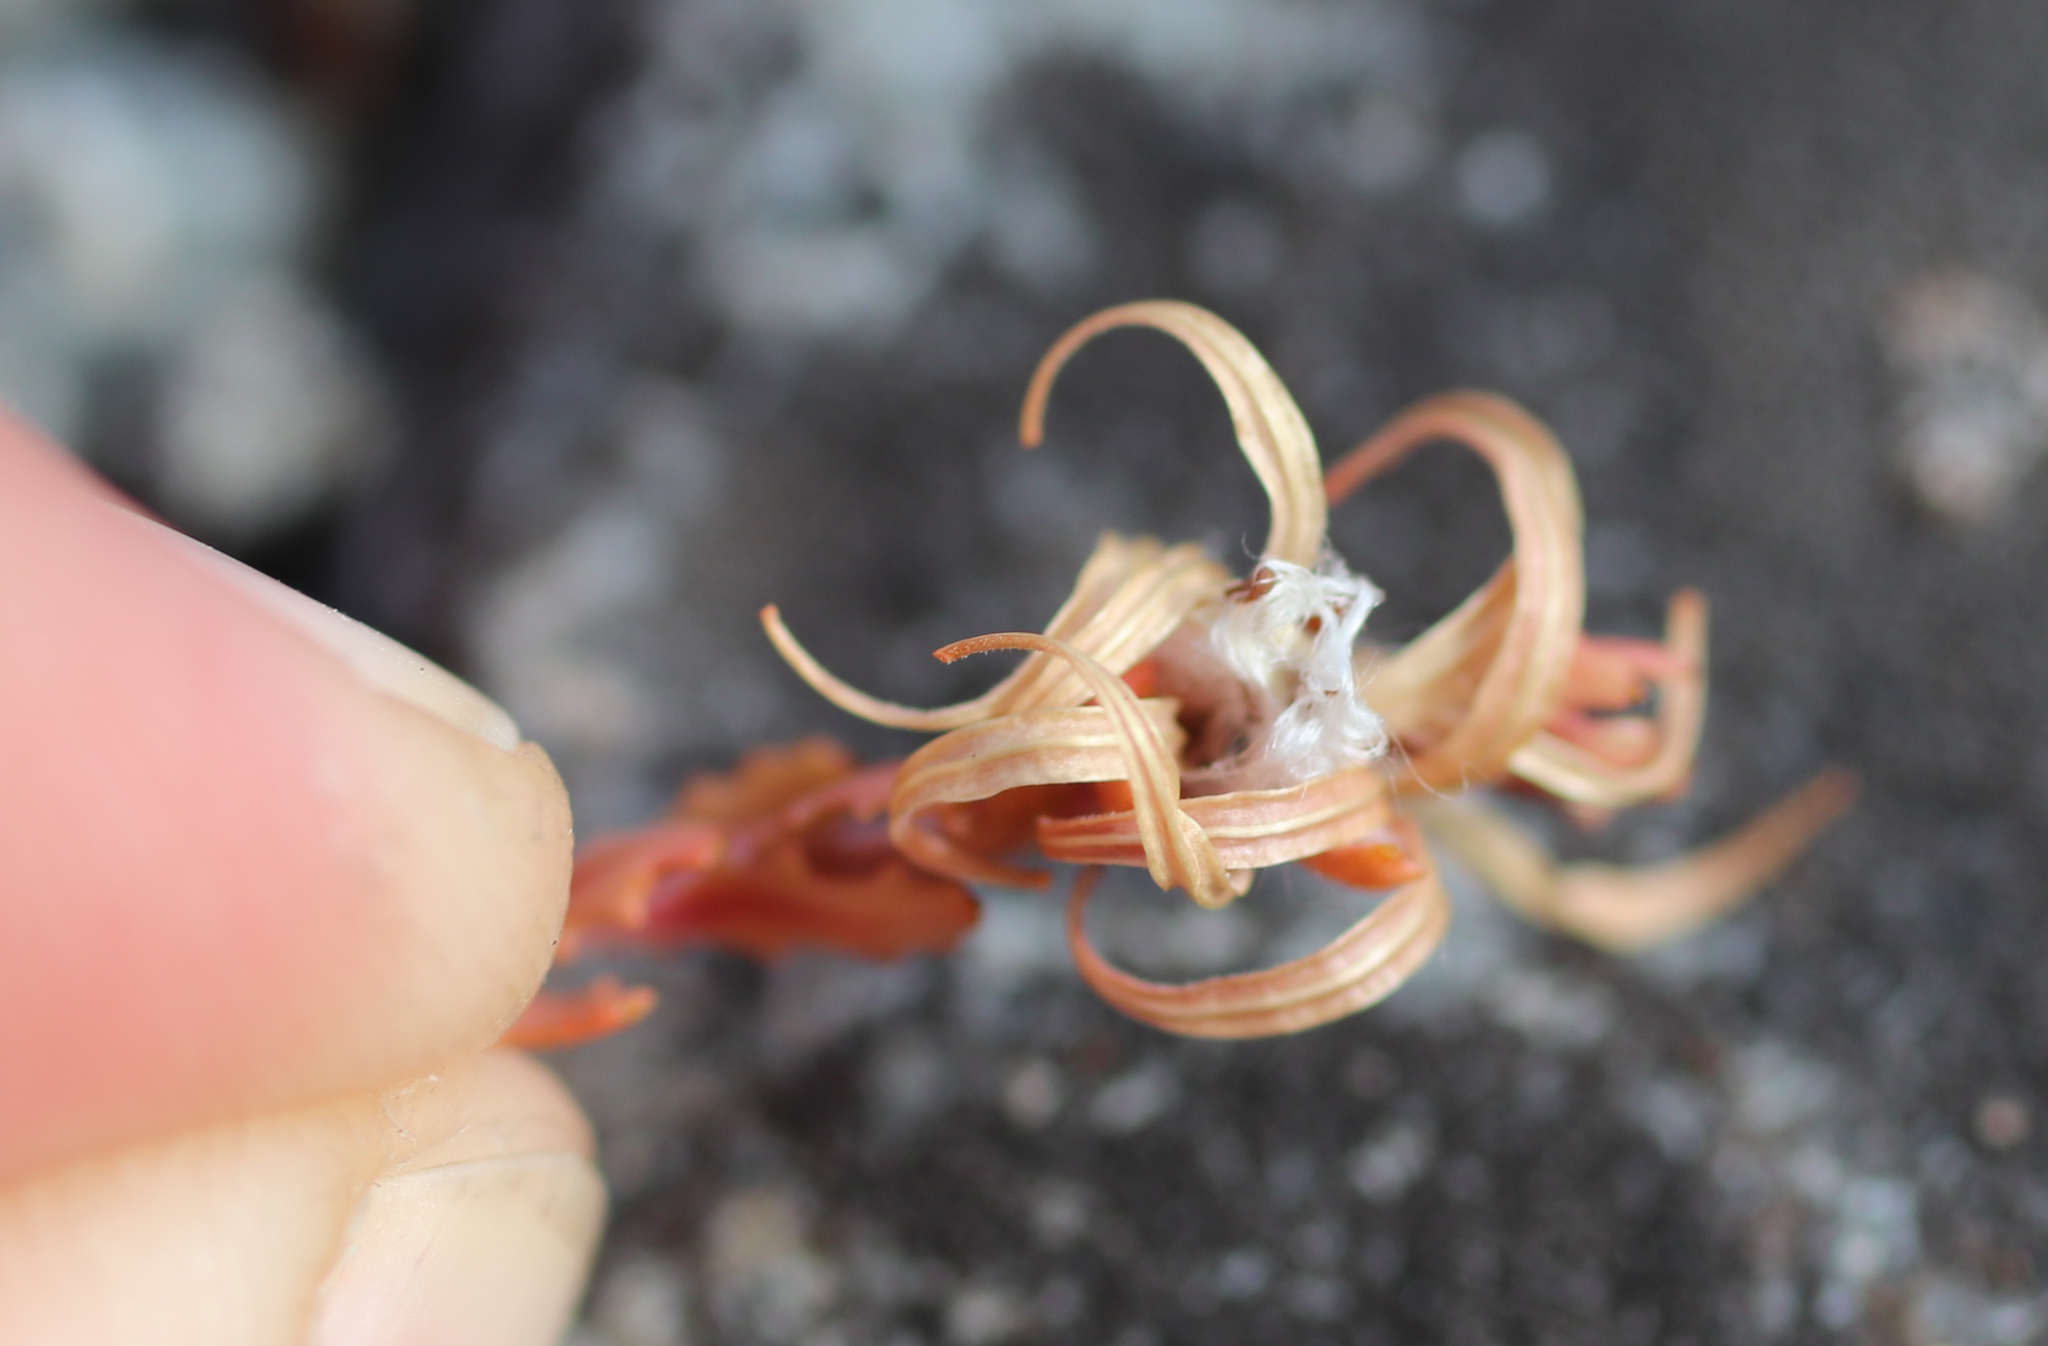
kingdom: Plantae
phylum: Tracheophyta
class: Magnoliopsida
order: Myrtales
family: Onagraceae
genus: Epilobium
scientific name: Epilobium rostratum
